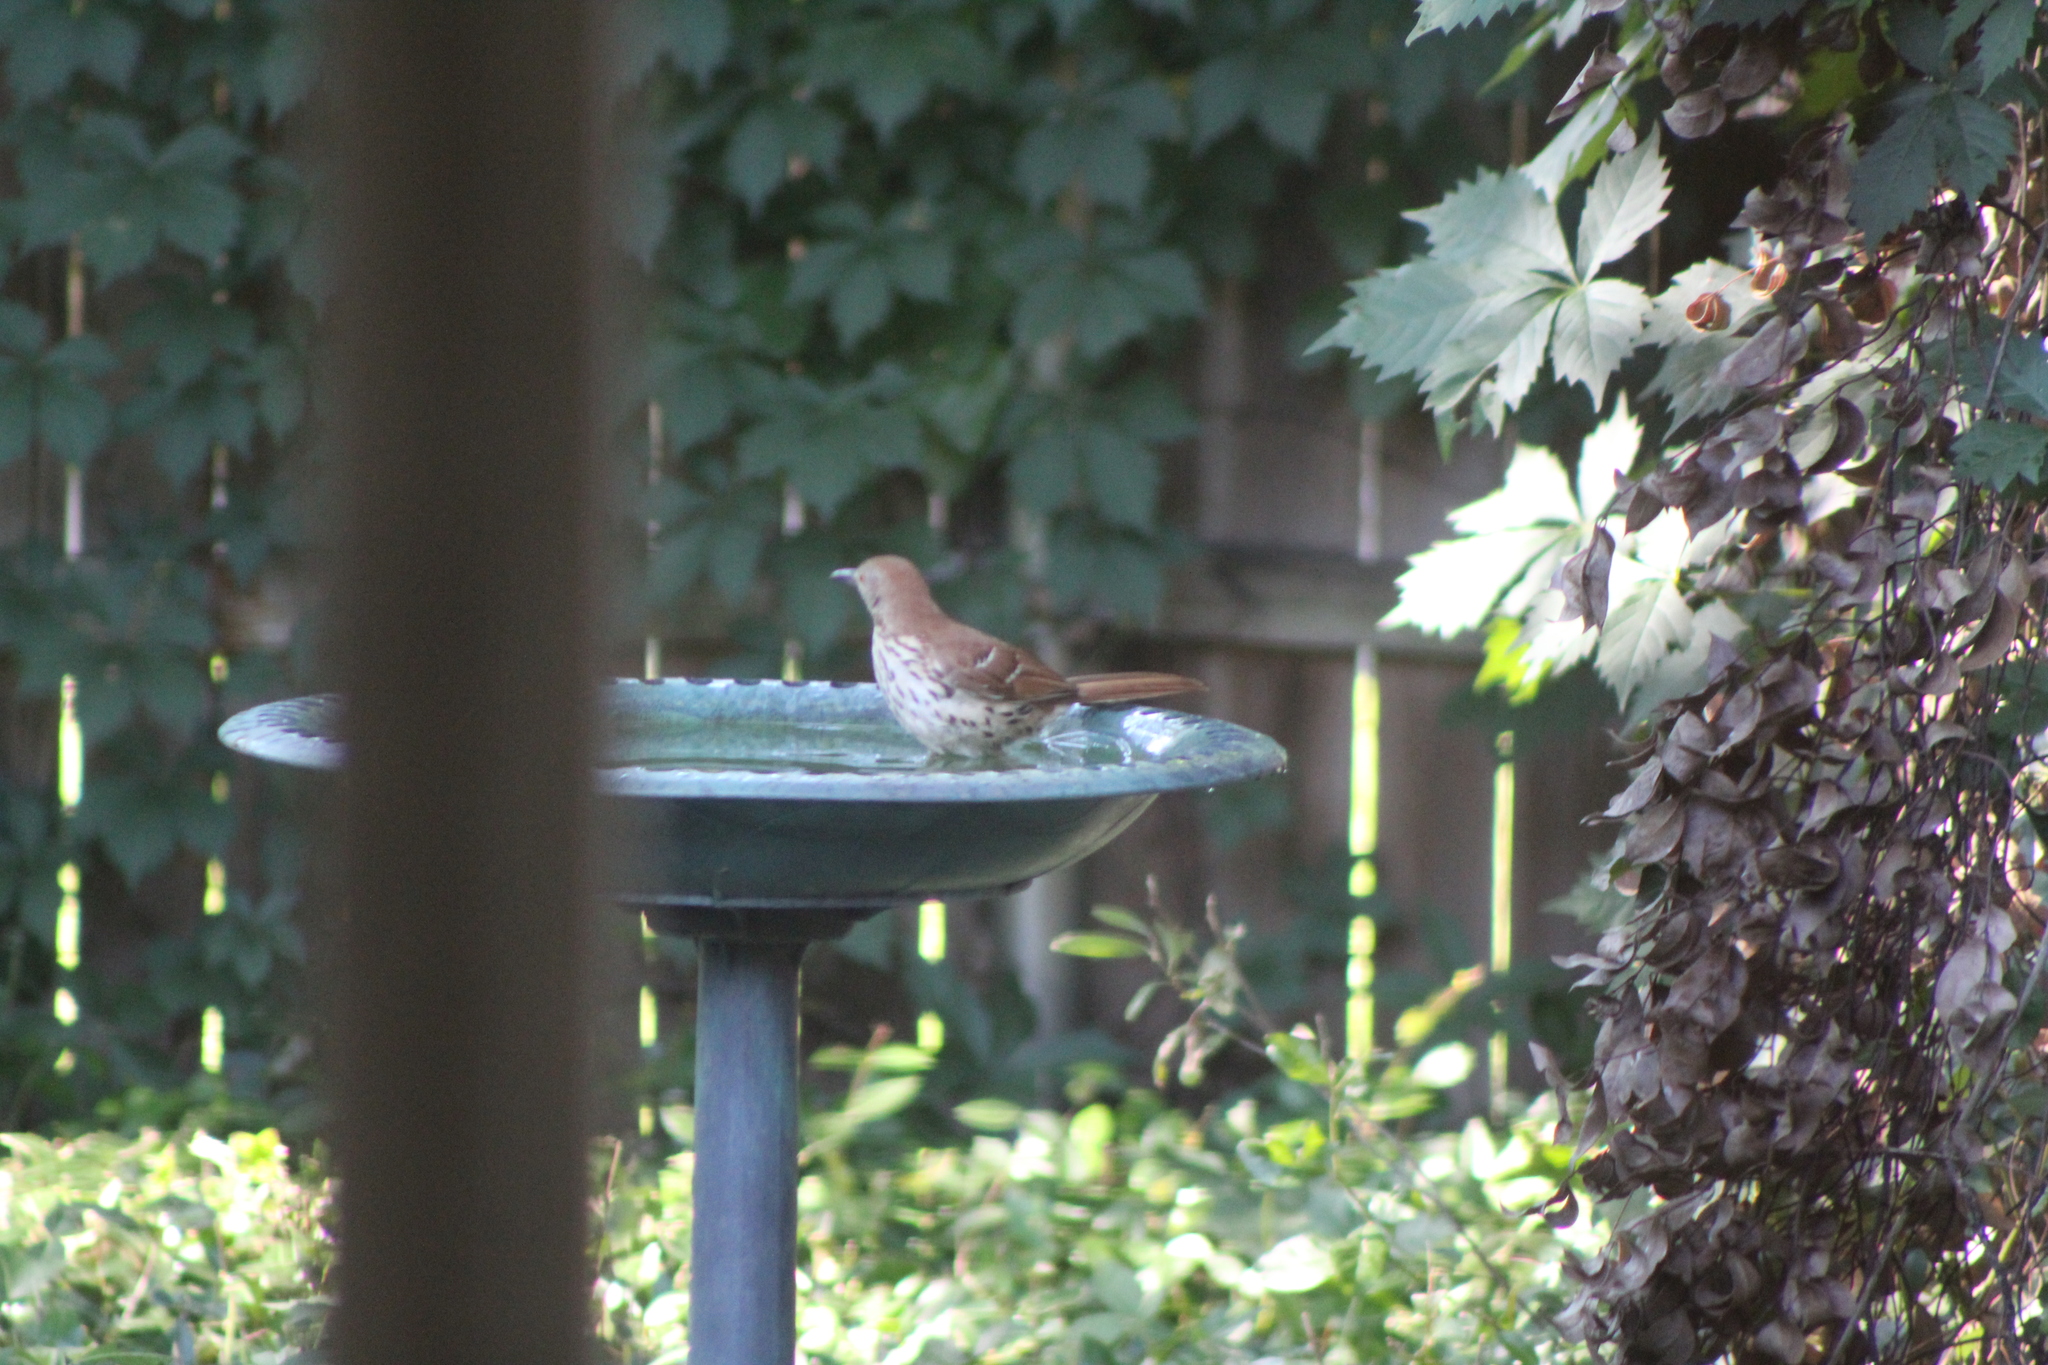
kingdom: Animalia
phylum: Chordata
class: Aves
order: Passeriformes
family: Mimidae
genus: Toxostoma
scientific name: Toxostoma rufum
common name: Brown thrasher
